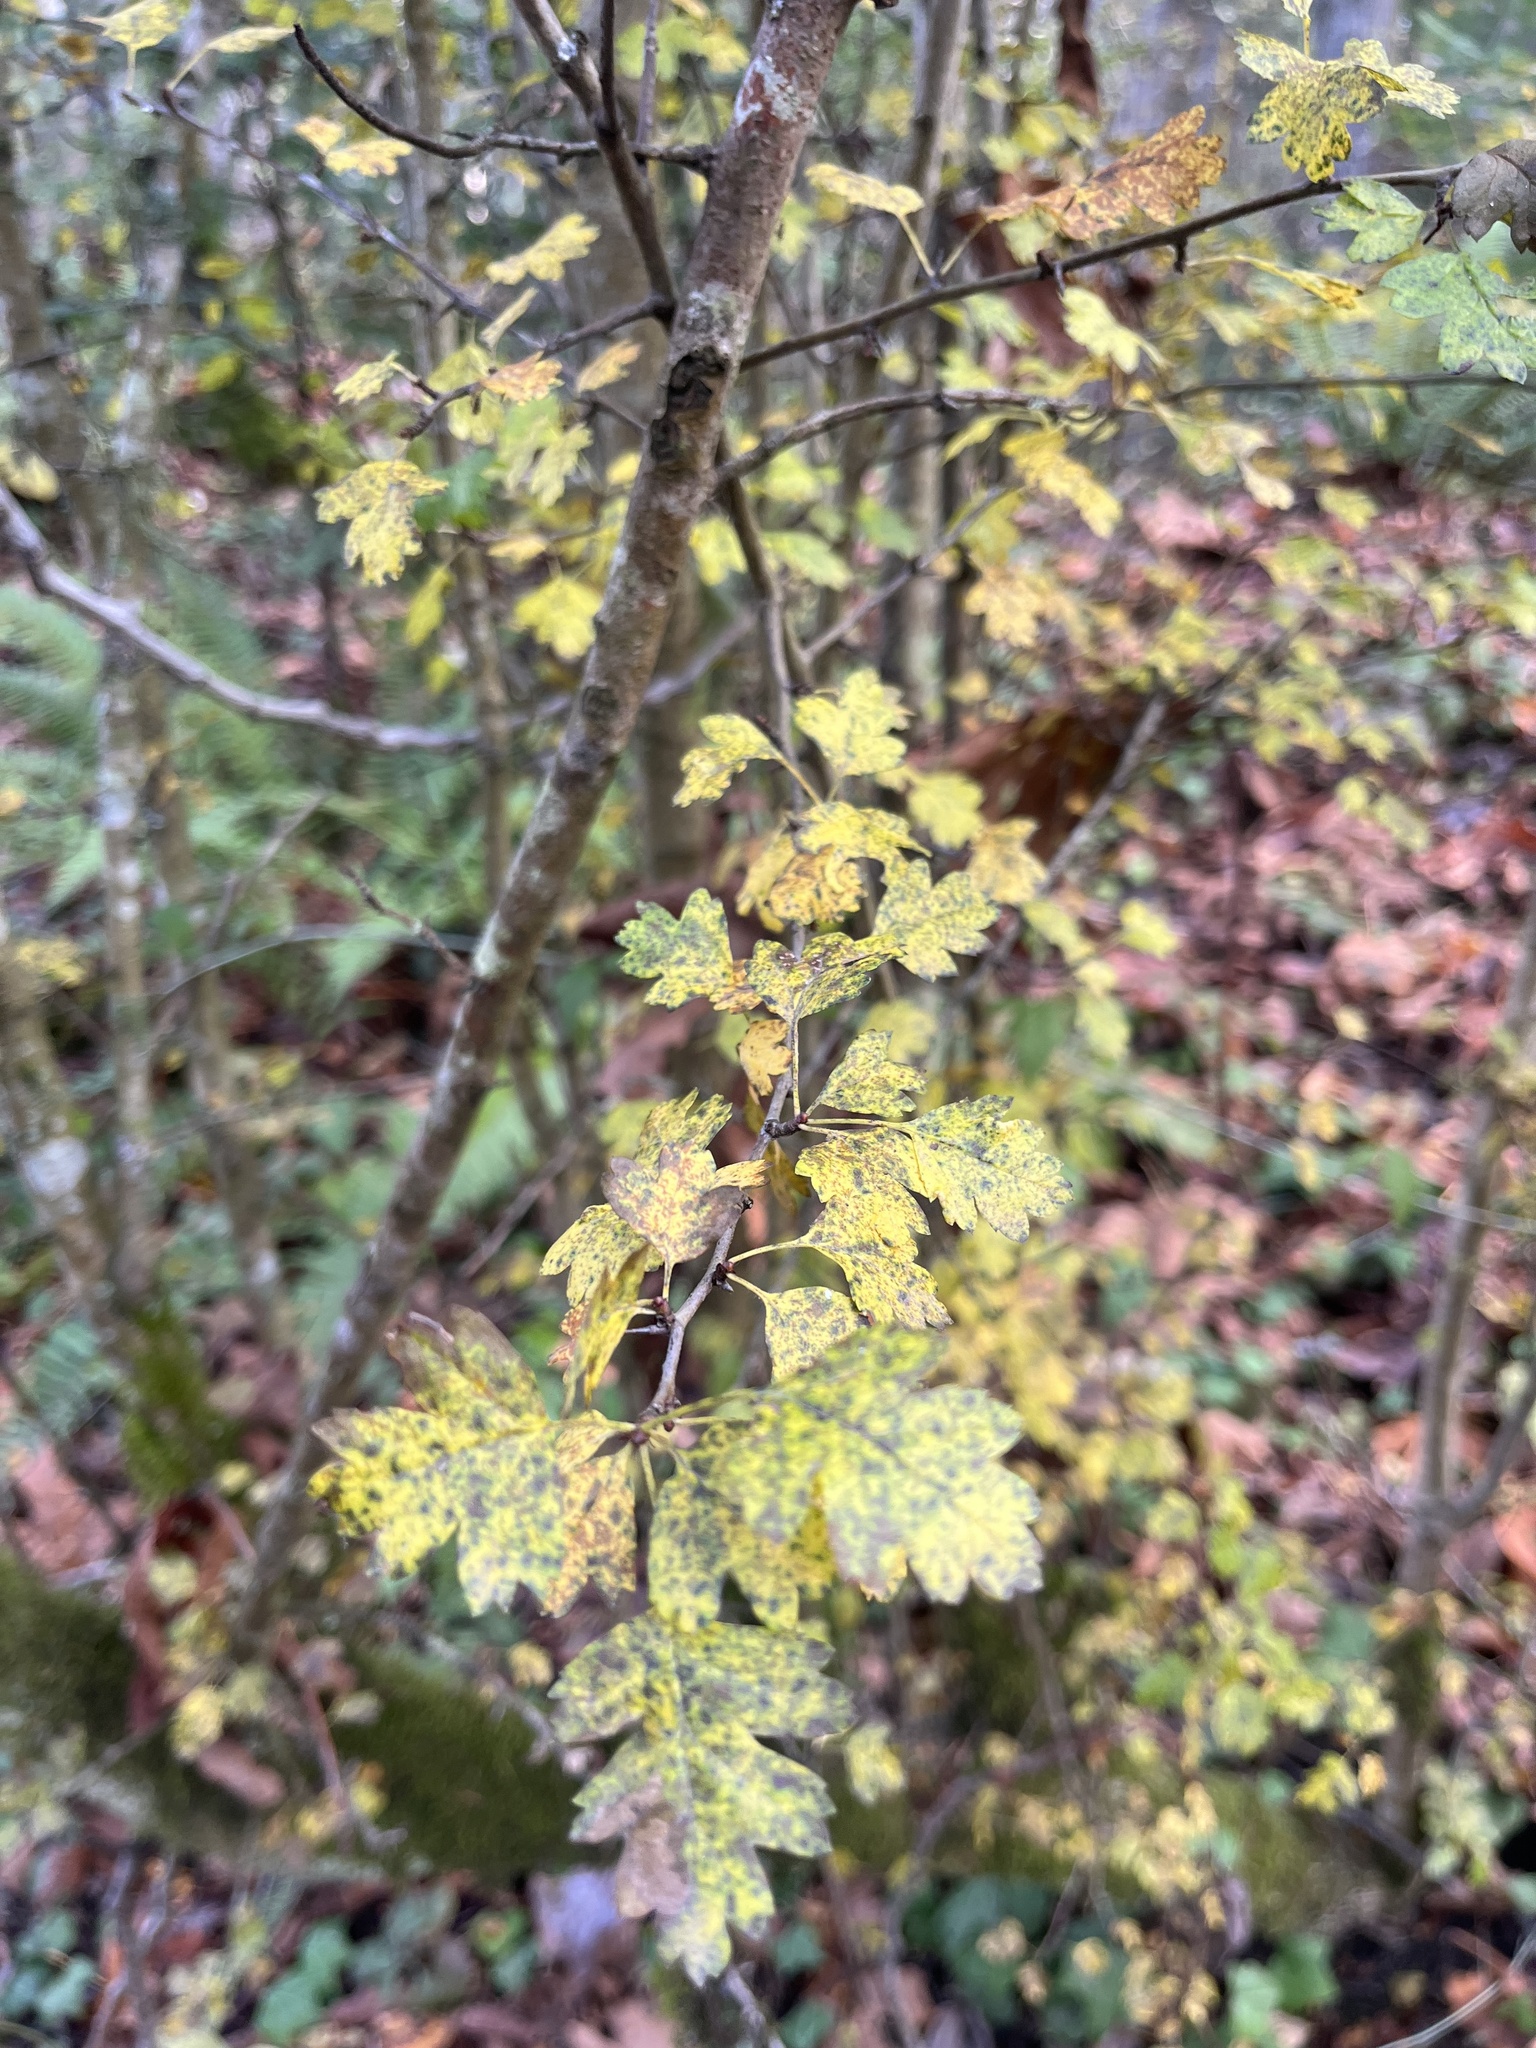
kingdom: Plantae
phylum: Tracheophyta
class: Magnoliopsida
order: Rosales
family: Rosaceae
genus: Crataegus
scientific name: Crataegus monogyna
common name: Hawthorn
